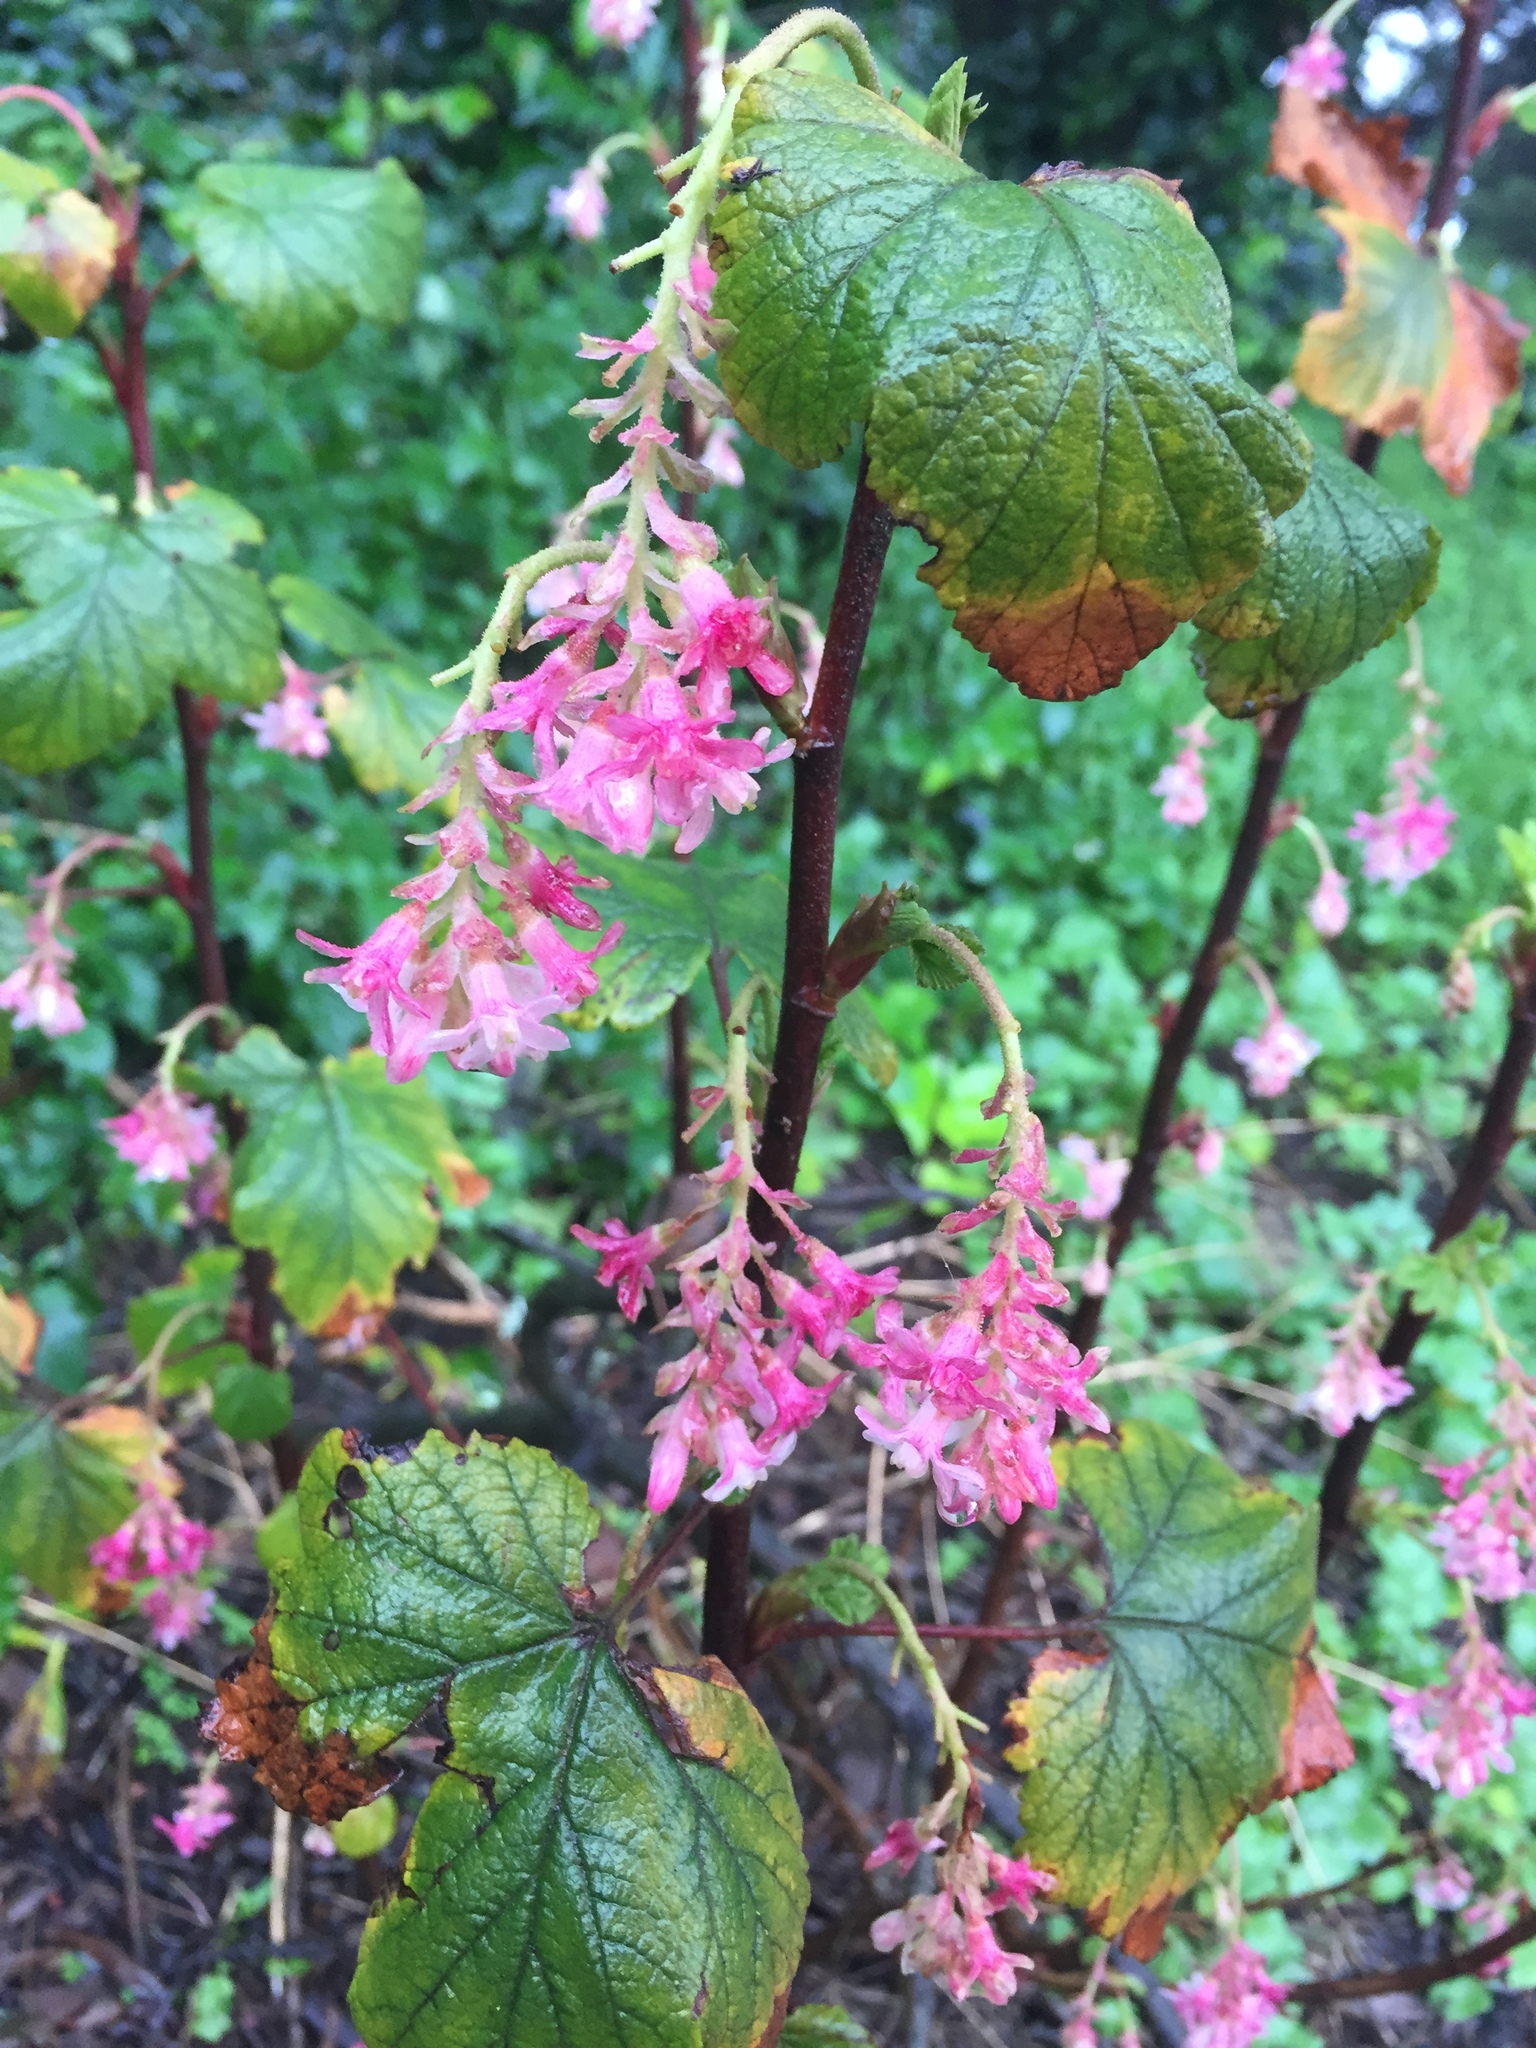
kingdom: Plantae
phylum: Tracheophyta
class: Magnoliopsida
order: Saxifragales
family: Grossulariaceae
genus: Ribes
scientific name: Ribes sanguineum
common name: Flowering currant
